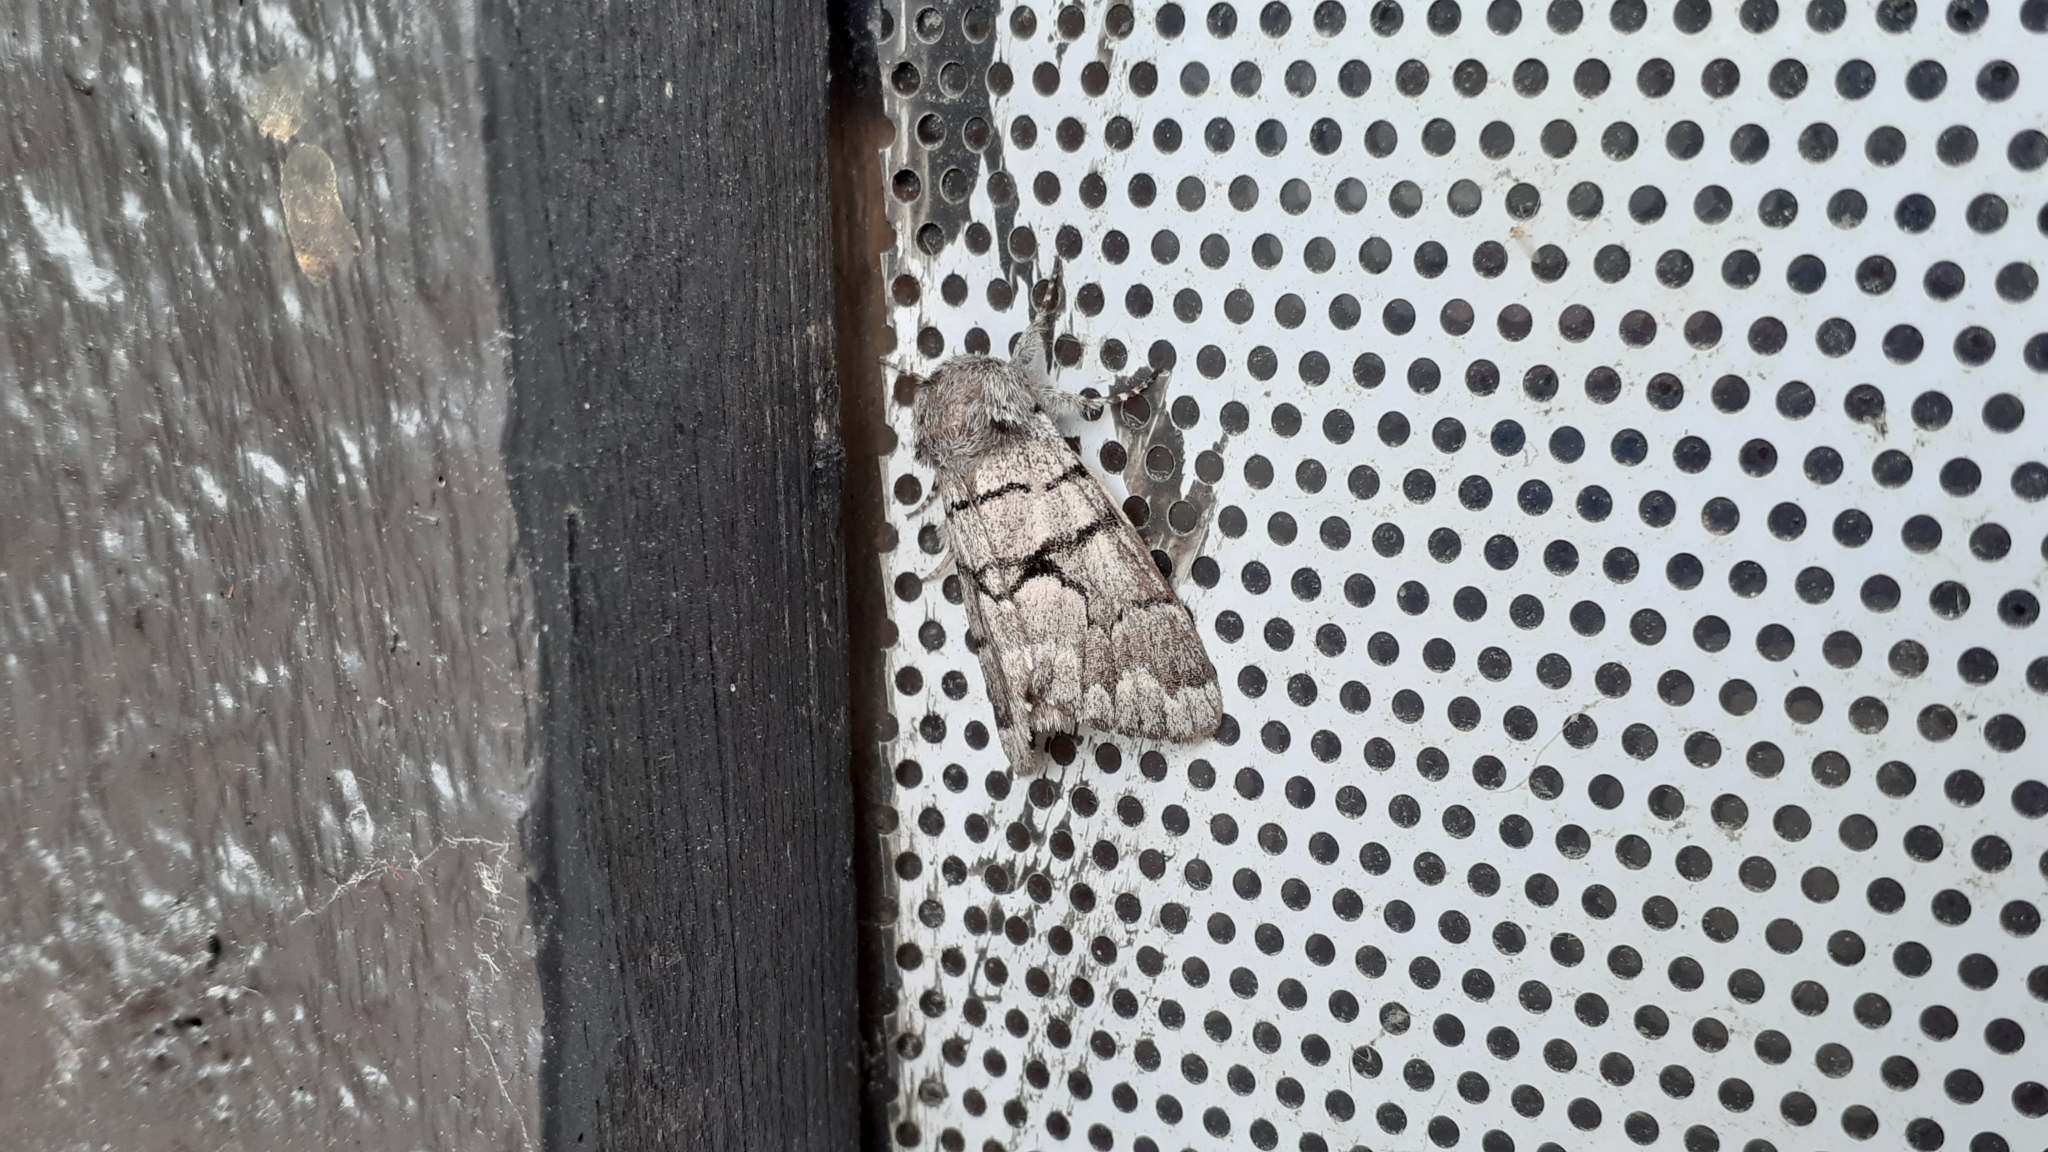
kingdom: Animalia
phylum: Arthropoda
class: Insecta
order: Lepidoptera
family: Noctuidae
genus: Panthea
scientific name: Panthea furcilla
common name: Eastern panthea moth
